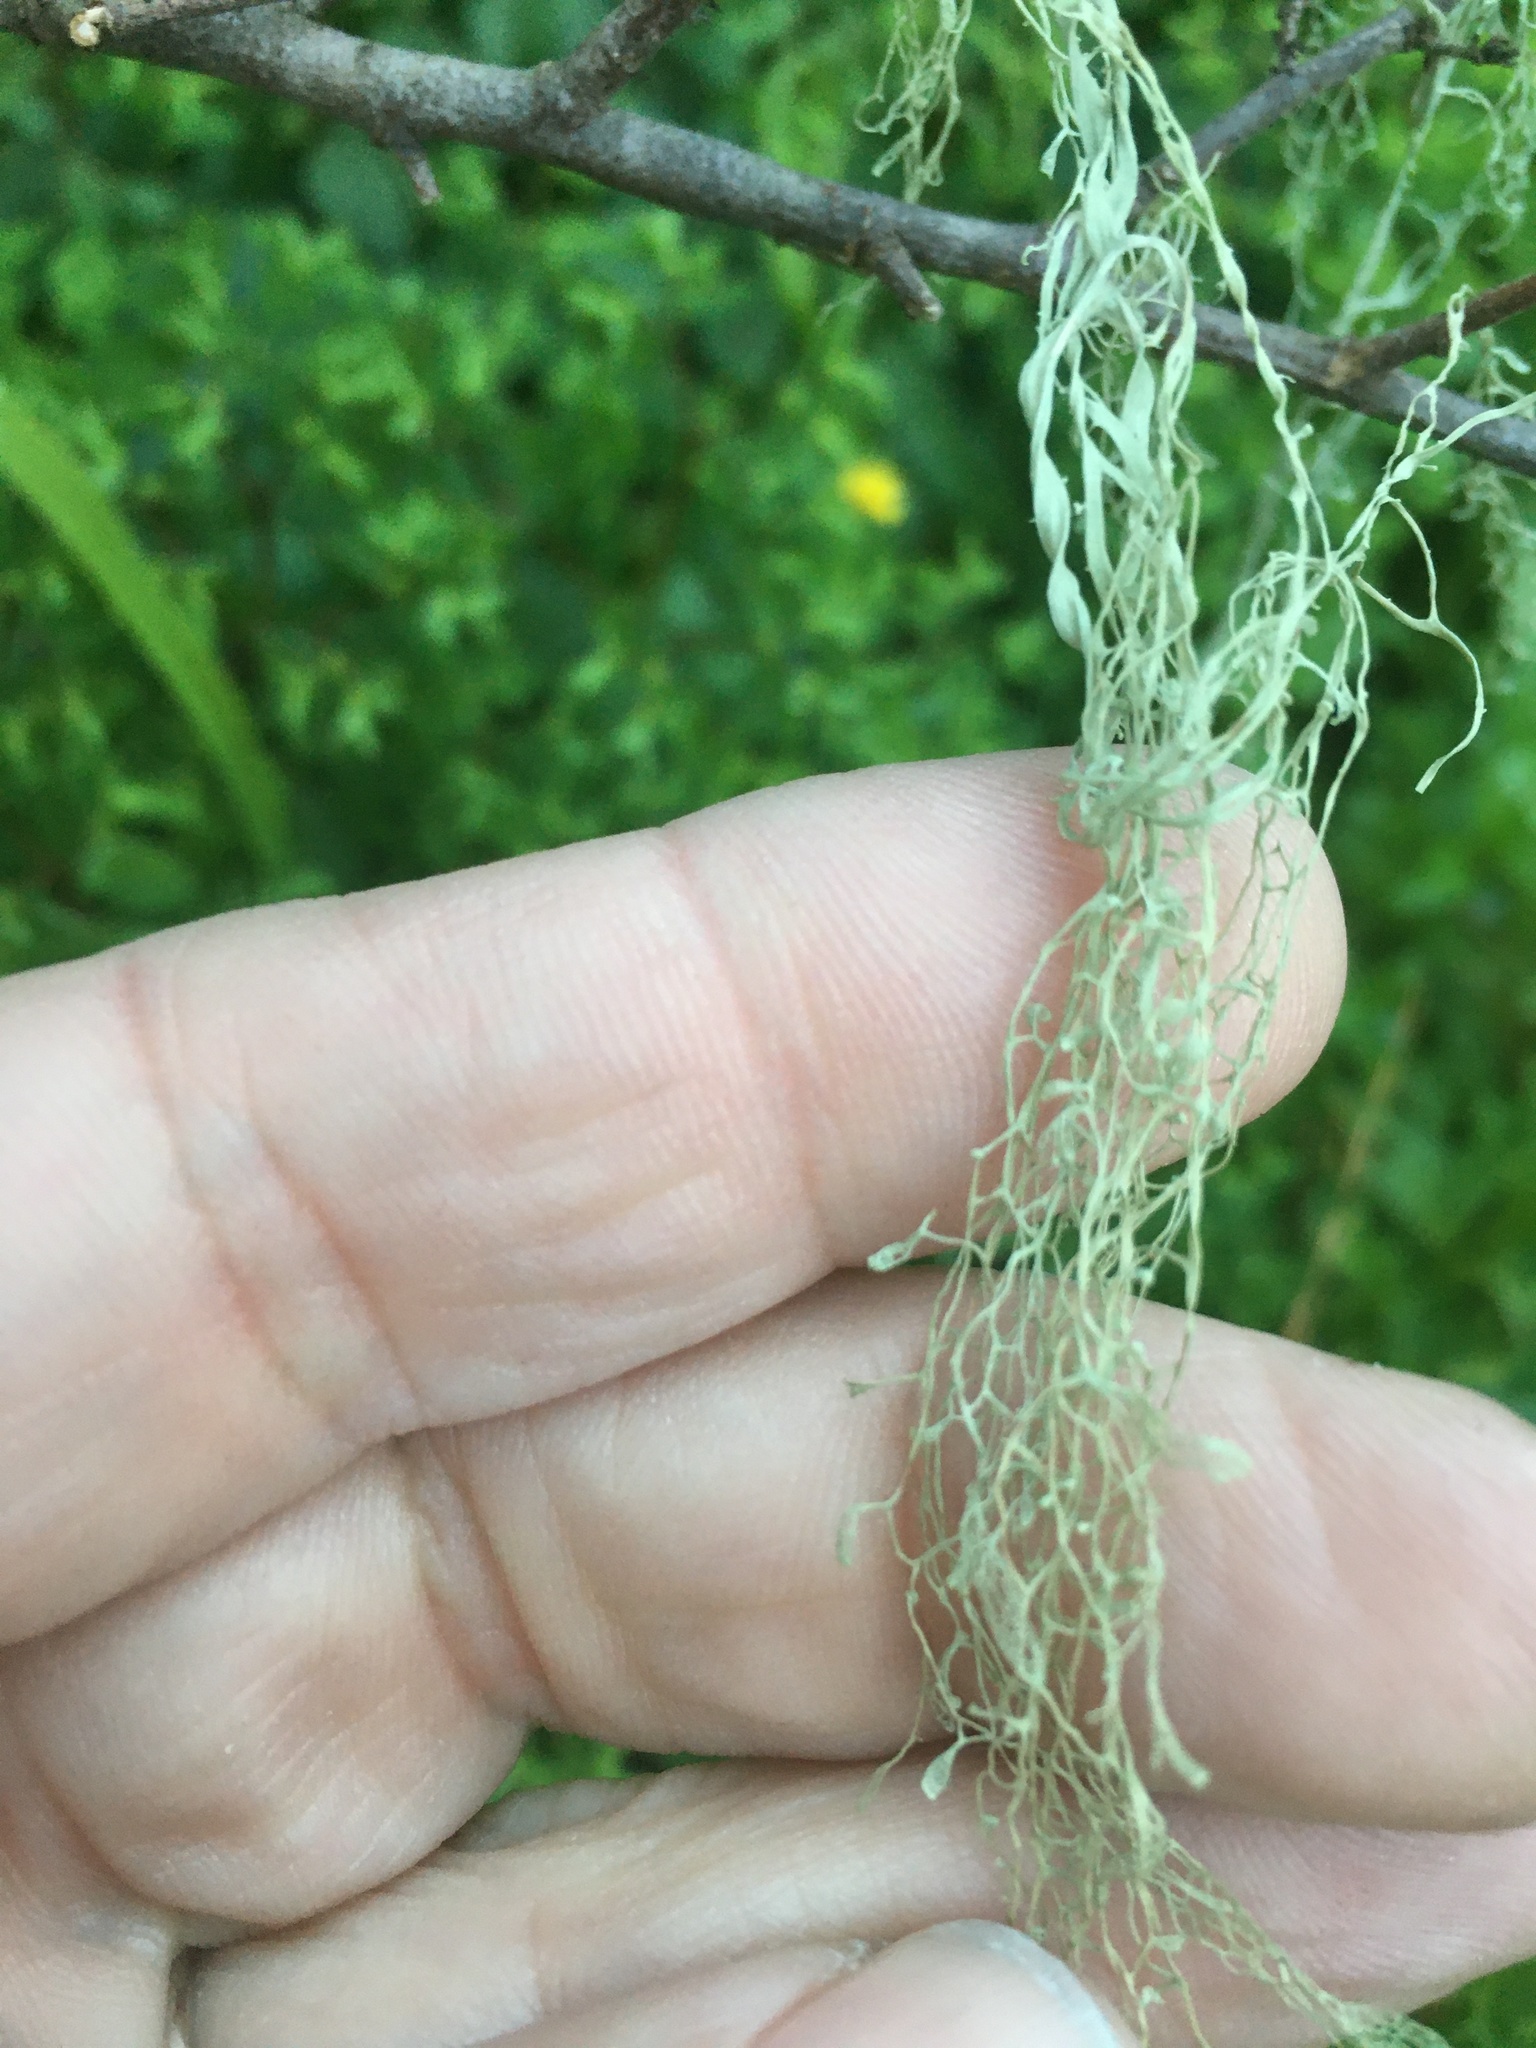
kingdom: Fungi
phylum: Ascomycota
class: Lecanoromycetes
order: Lecanorales
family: Ramalinaceae
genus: Ramalina
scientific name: Ramalina menziesii
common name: Lace lichen
